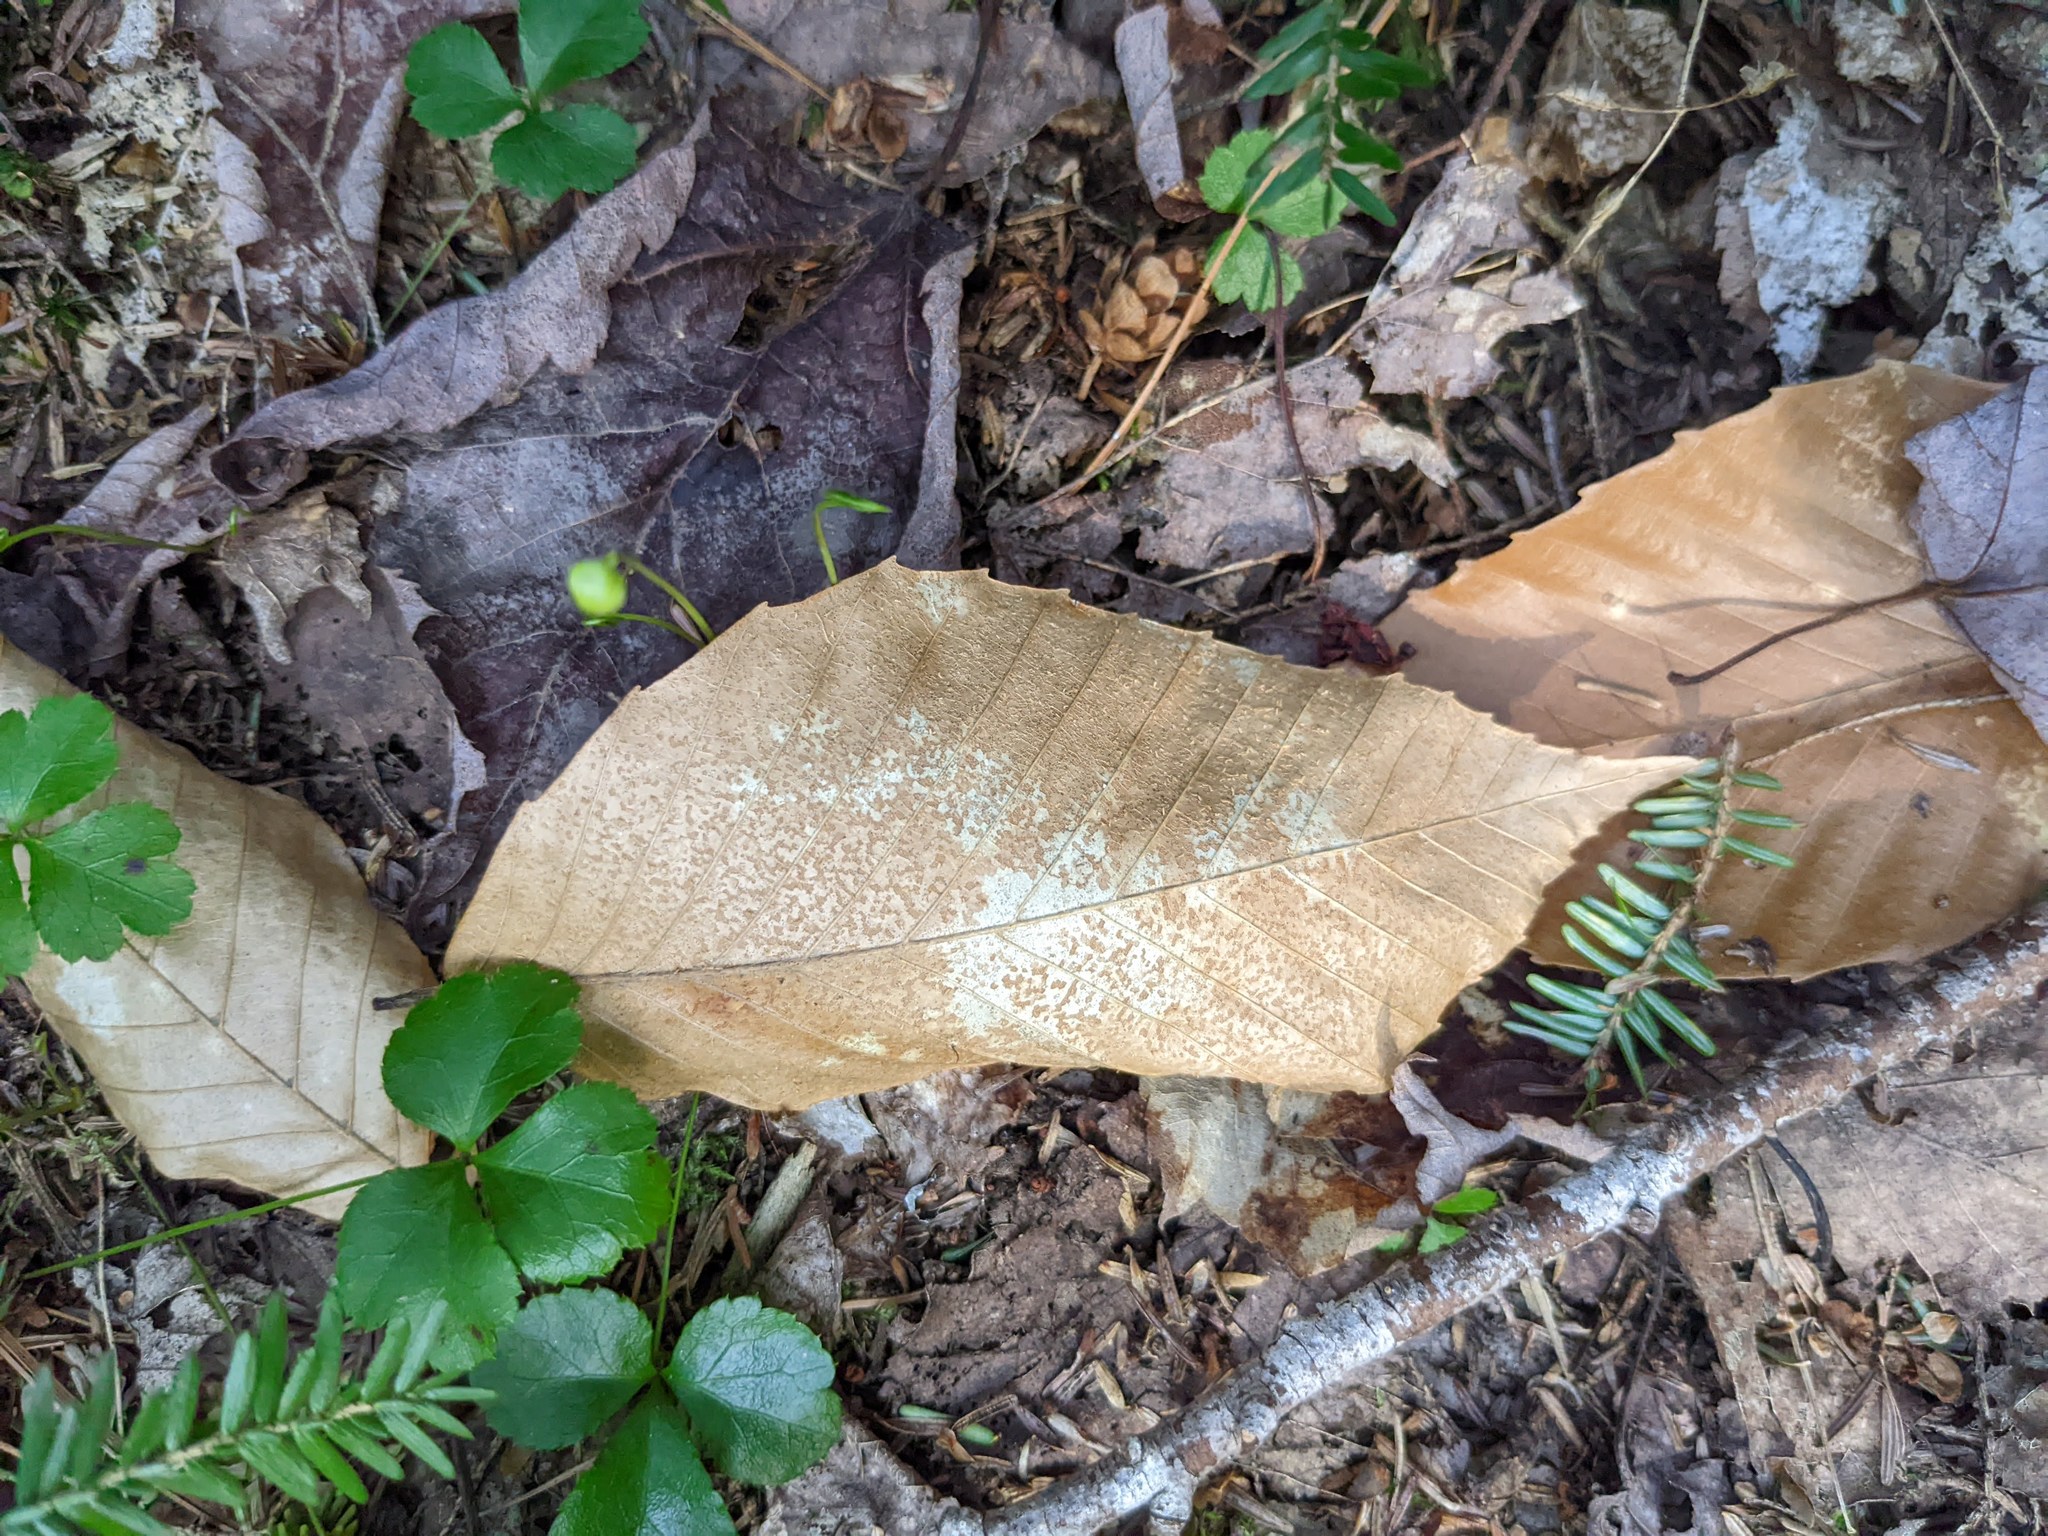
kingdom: Plantae
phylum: Tracheophyta
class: Magnoliopsida
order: Ranunculales
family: Ranunculaceae
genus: Coptis
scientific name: Coptis trifolia
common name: Canker-root
